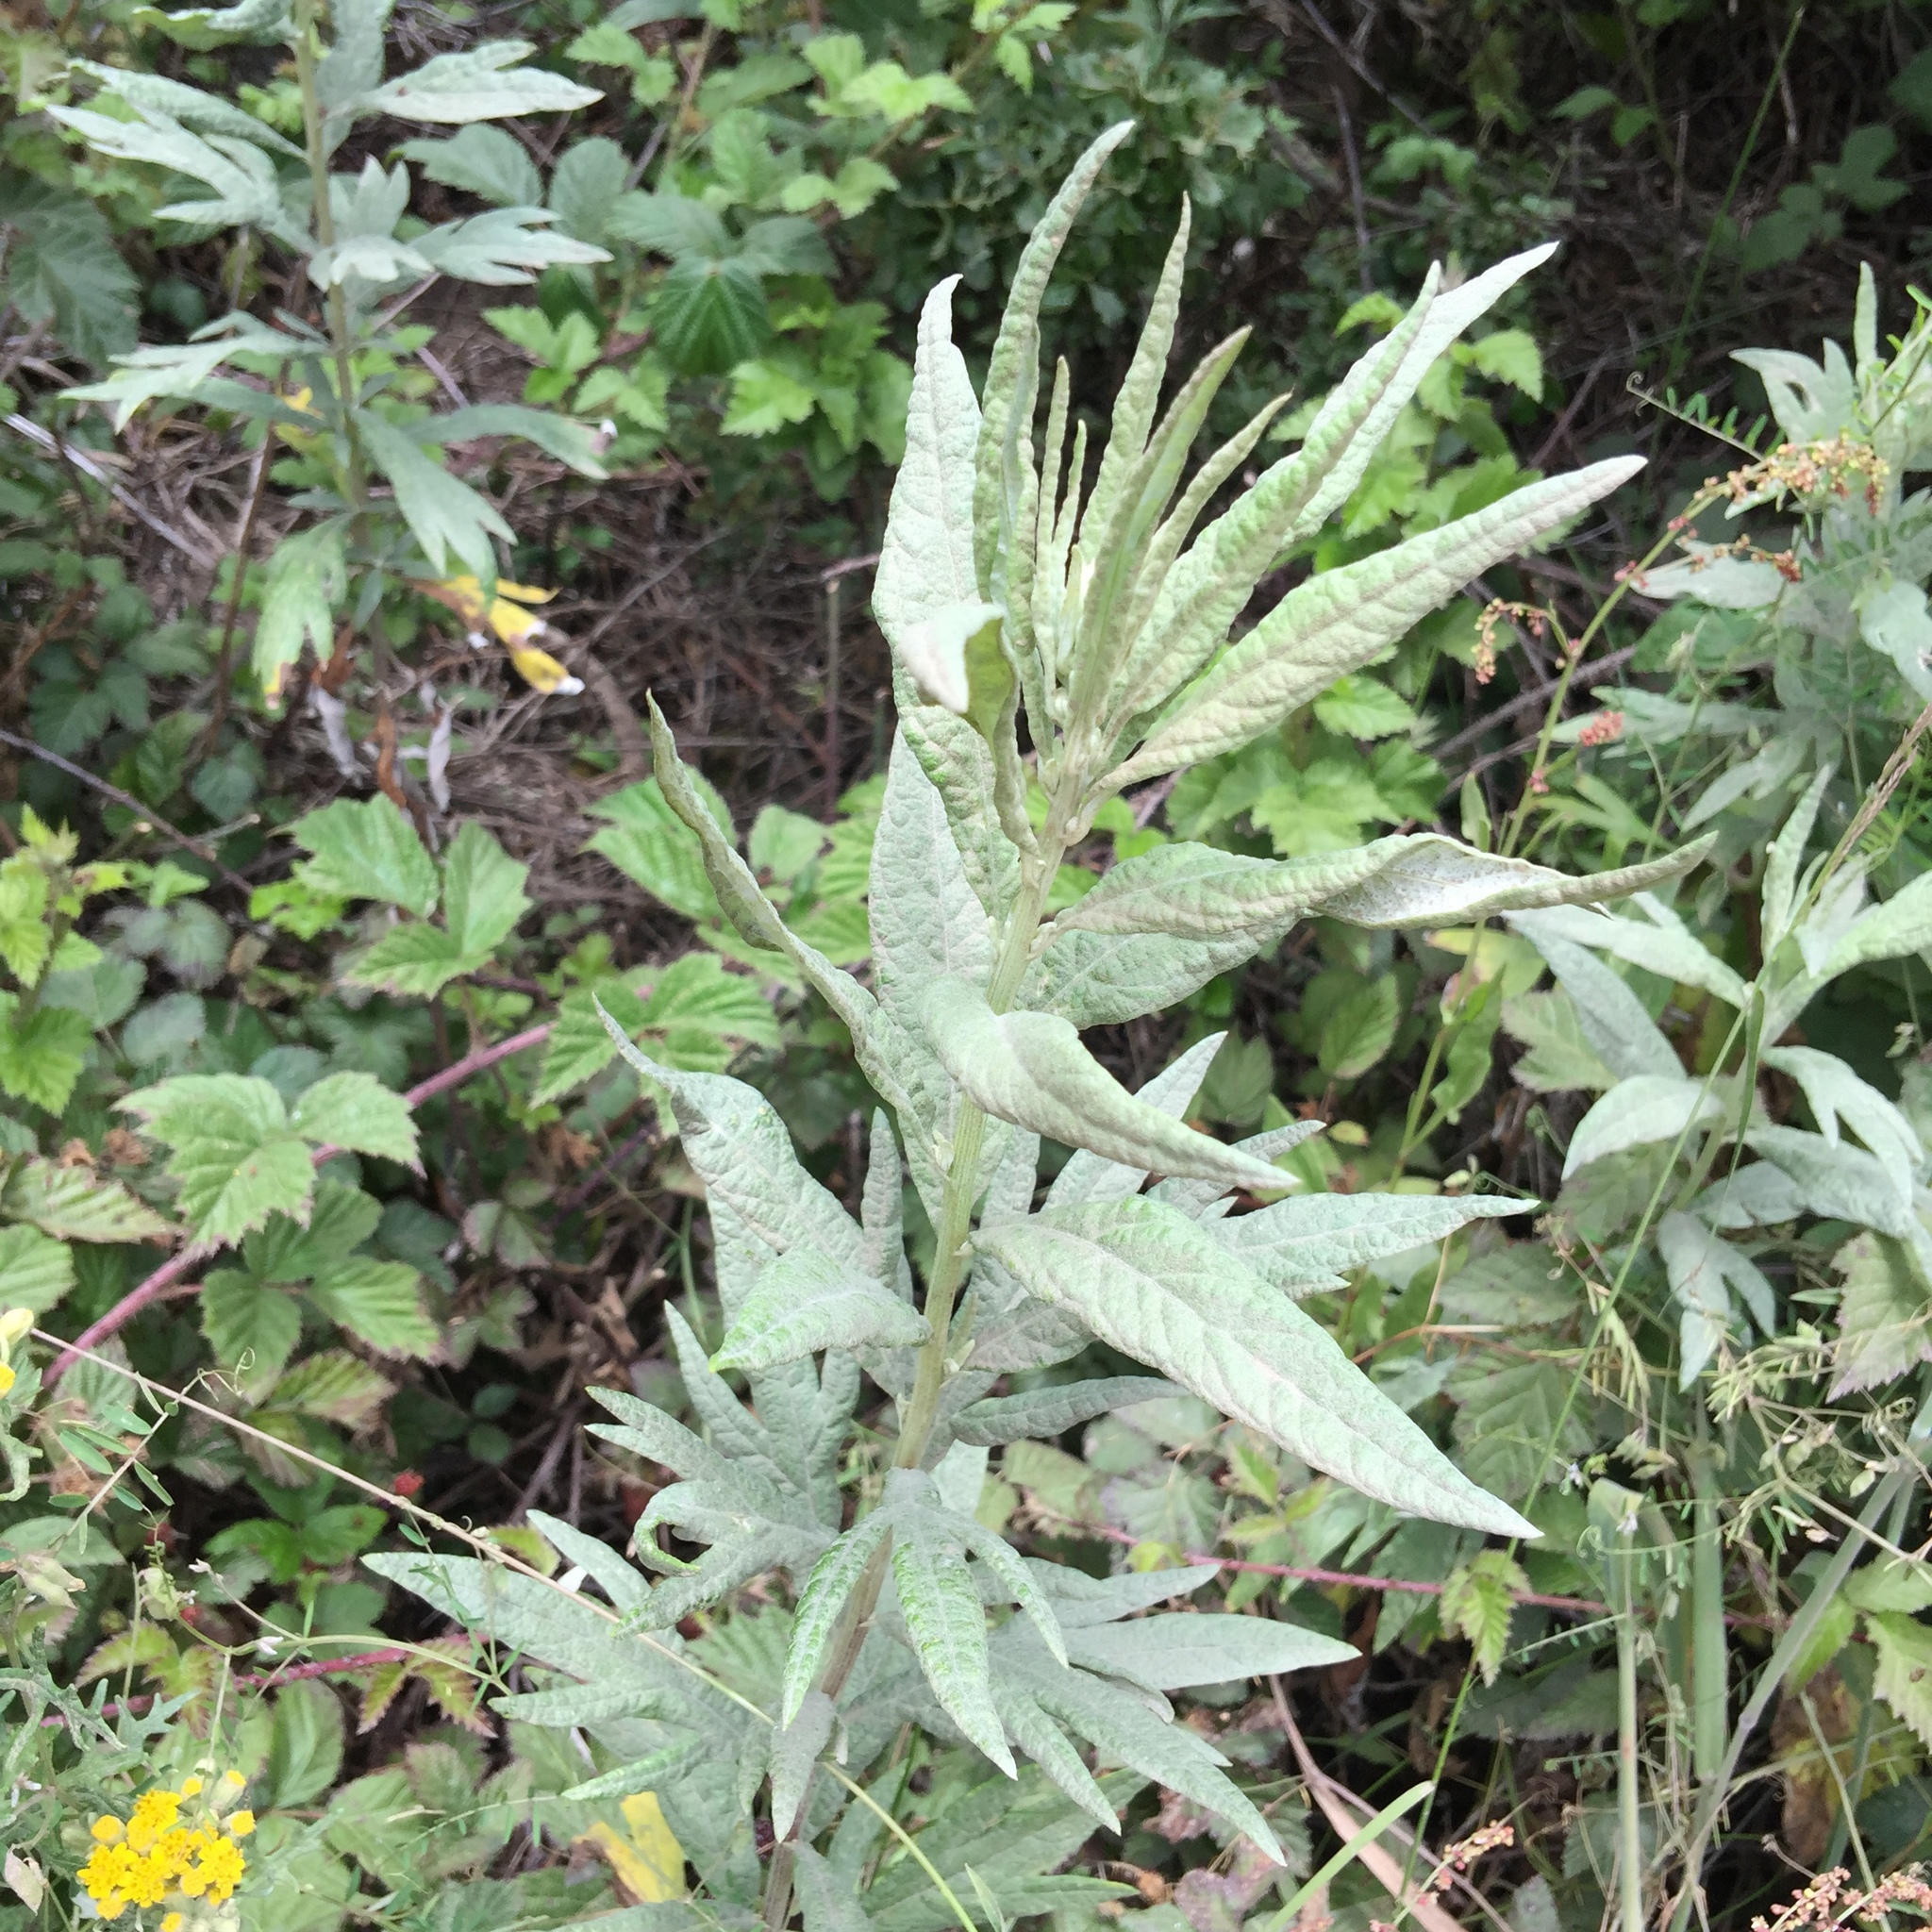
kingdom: Plantae
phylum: Tracheophyta
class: Magnoliopsida
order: Asterales
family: Asteraceae
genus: Artemisia
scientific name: Artemisia douglasiana
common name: Northwest mugwort
